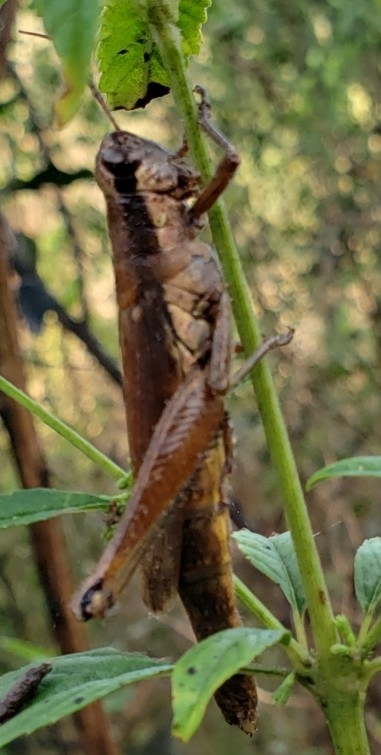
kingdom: Animalia
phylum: Arthropoda
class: Insecta
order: Orthoptera
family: Acrididae
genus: Paroxya
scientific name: Paroxya clavuligera
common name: Olive-green swamp grasshopper
